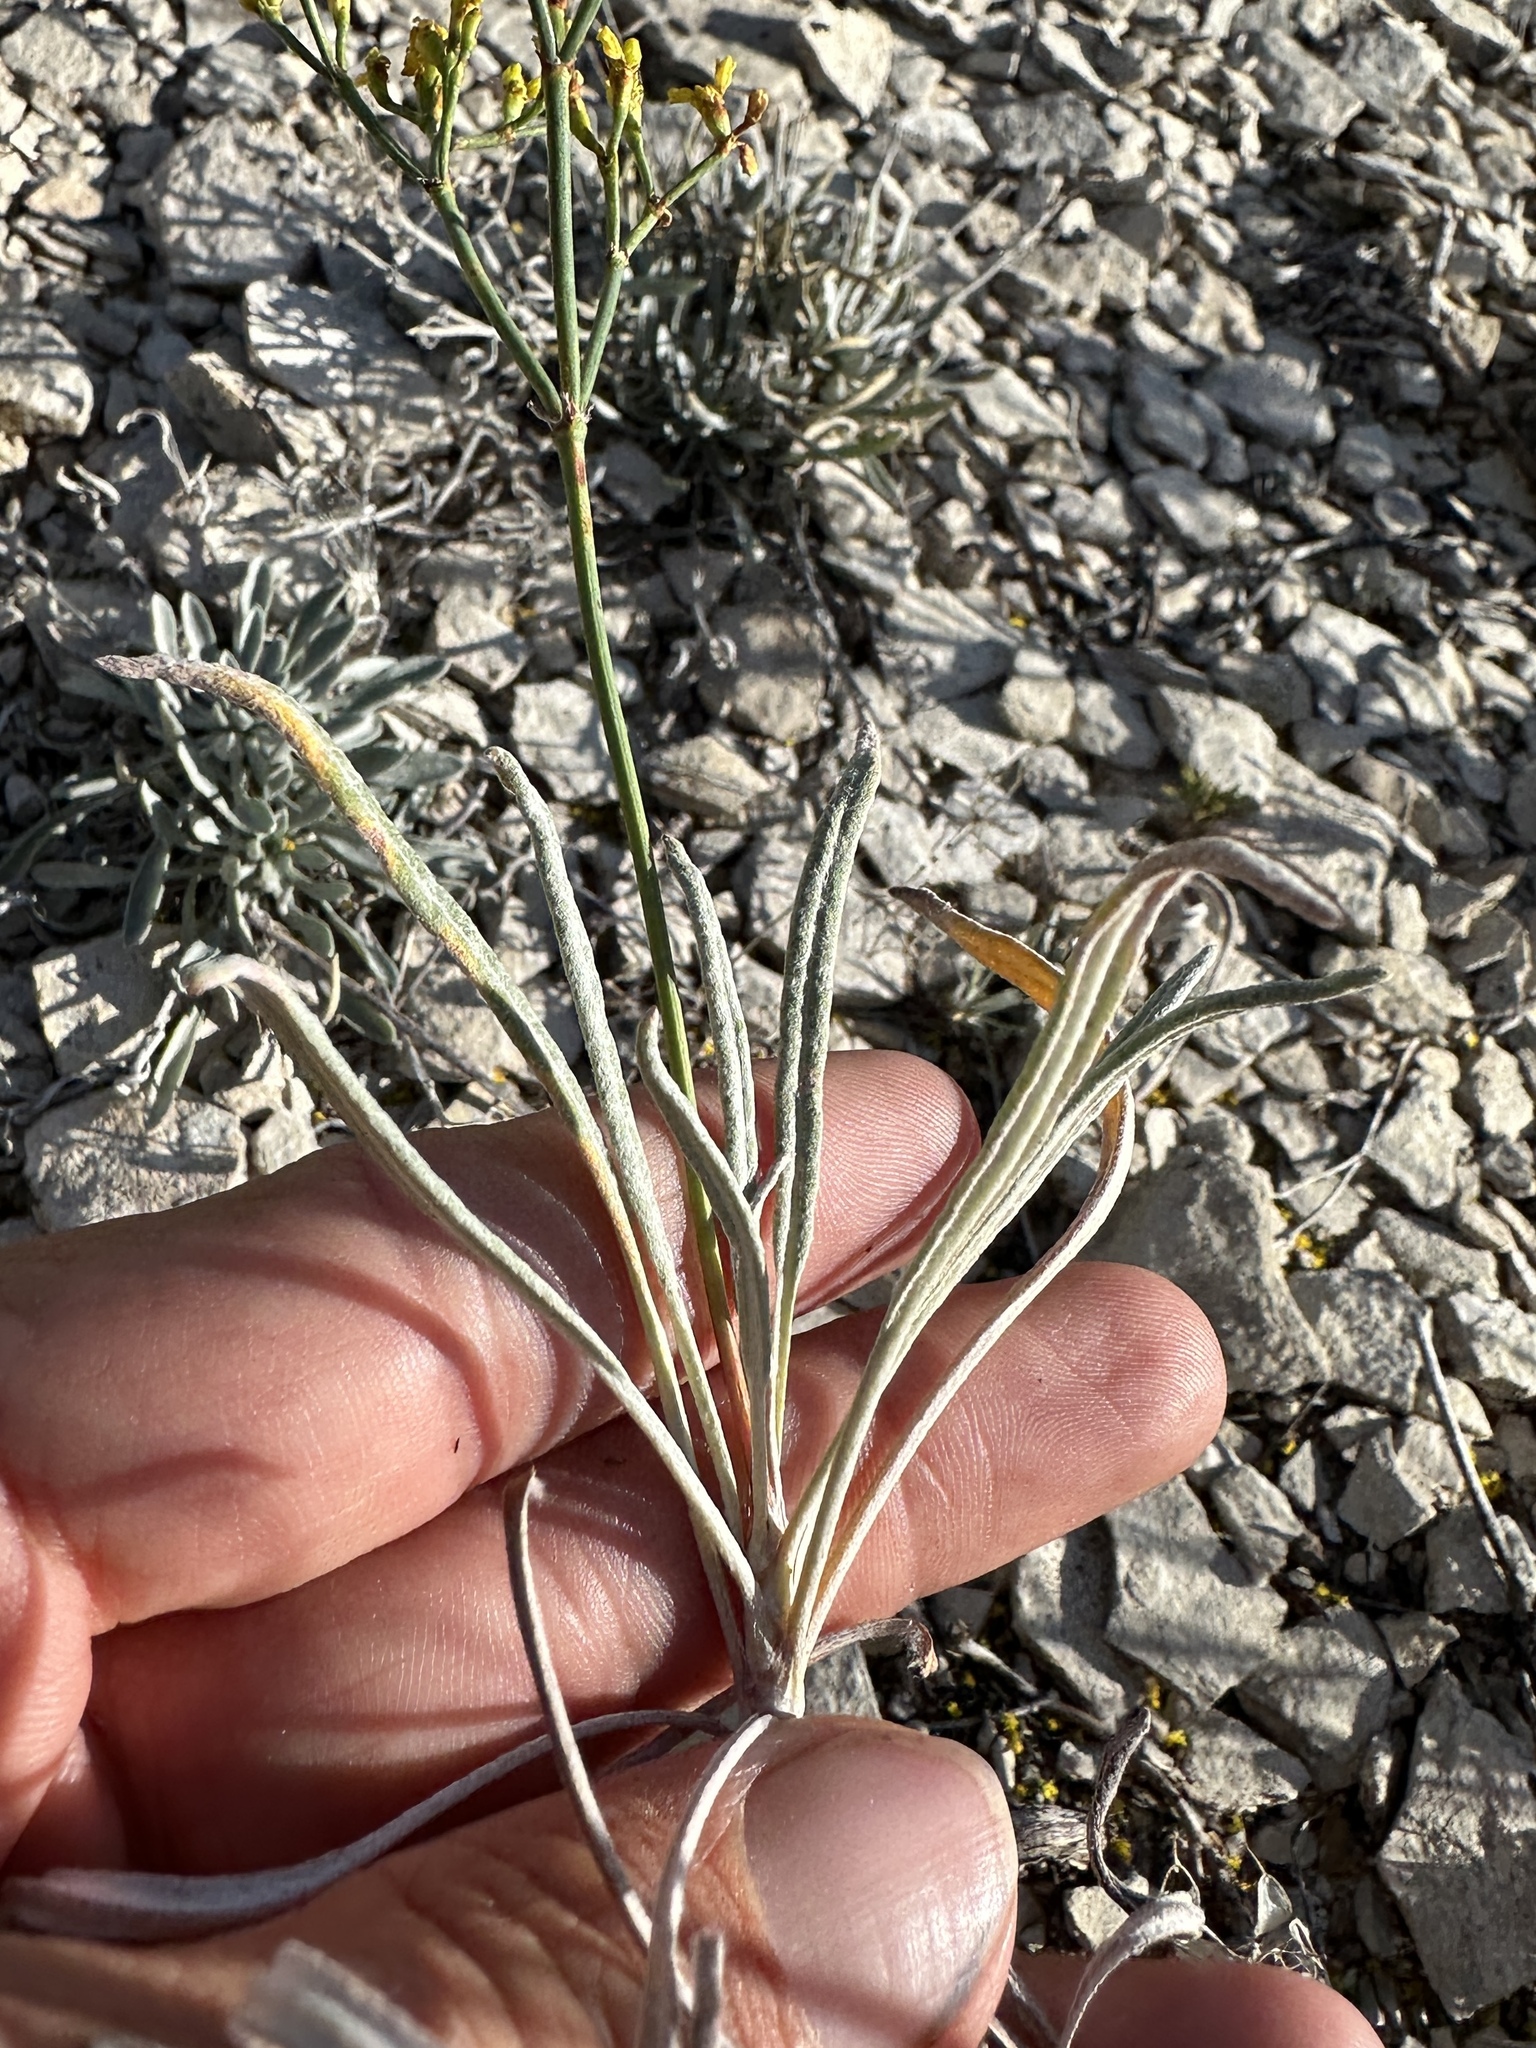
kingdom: Plantae
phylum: Tracheophyta
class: Magnoliopsida
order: Caryophyllales
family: Polygonaceae
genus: Eriogonum
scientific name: Eriogonum brevicaule
